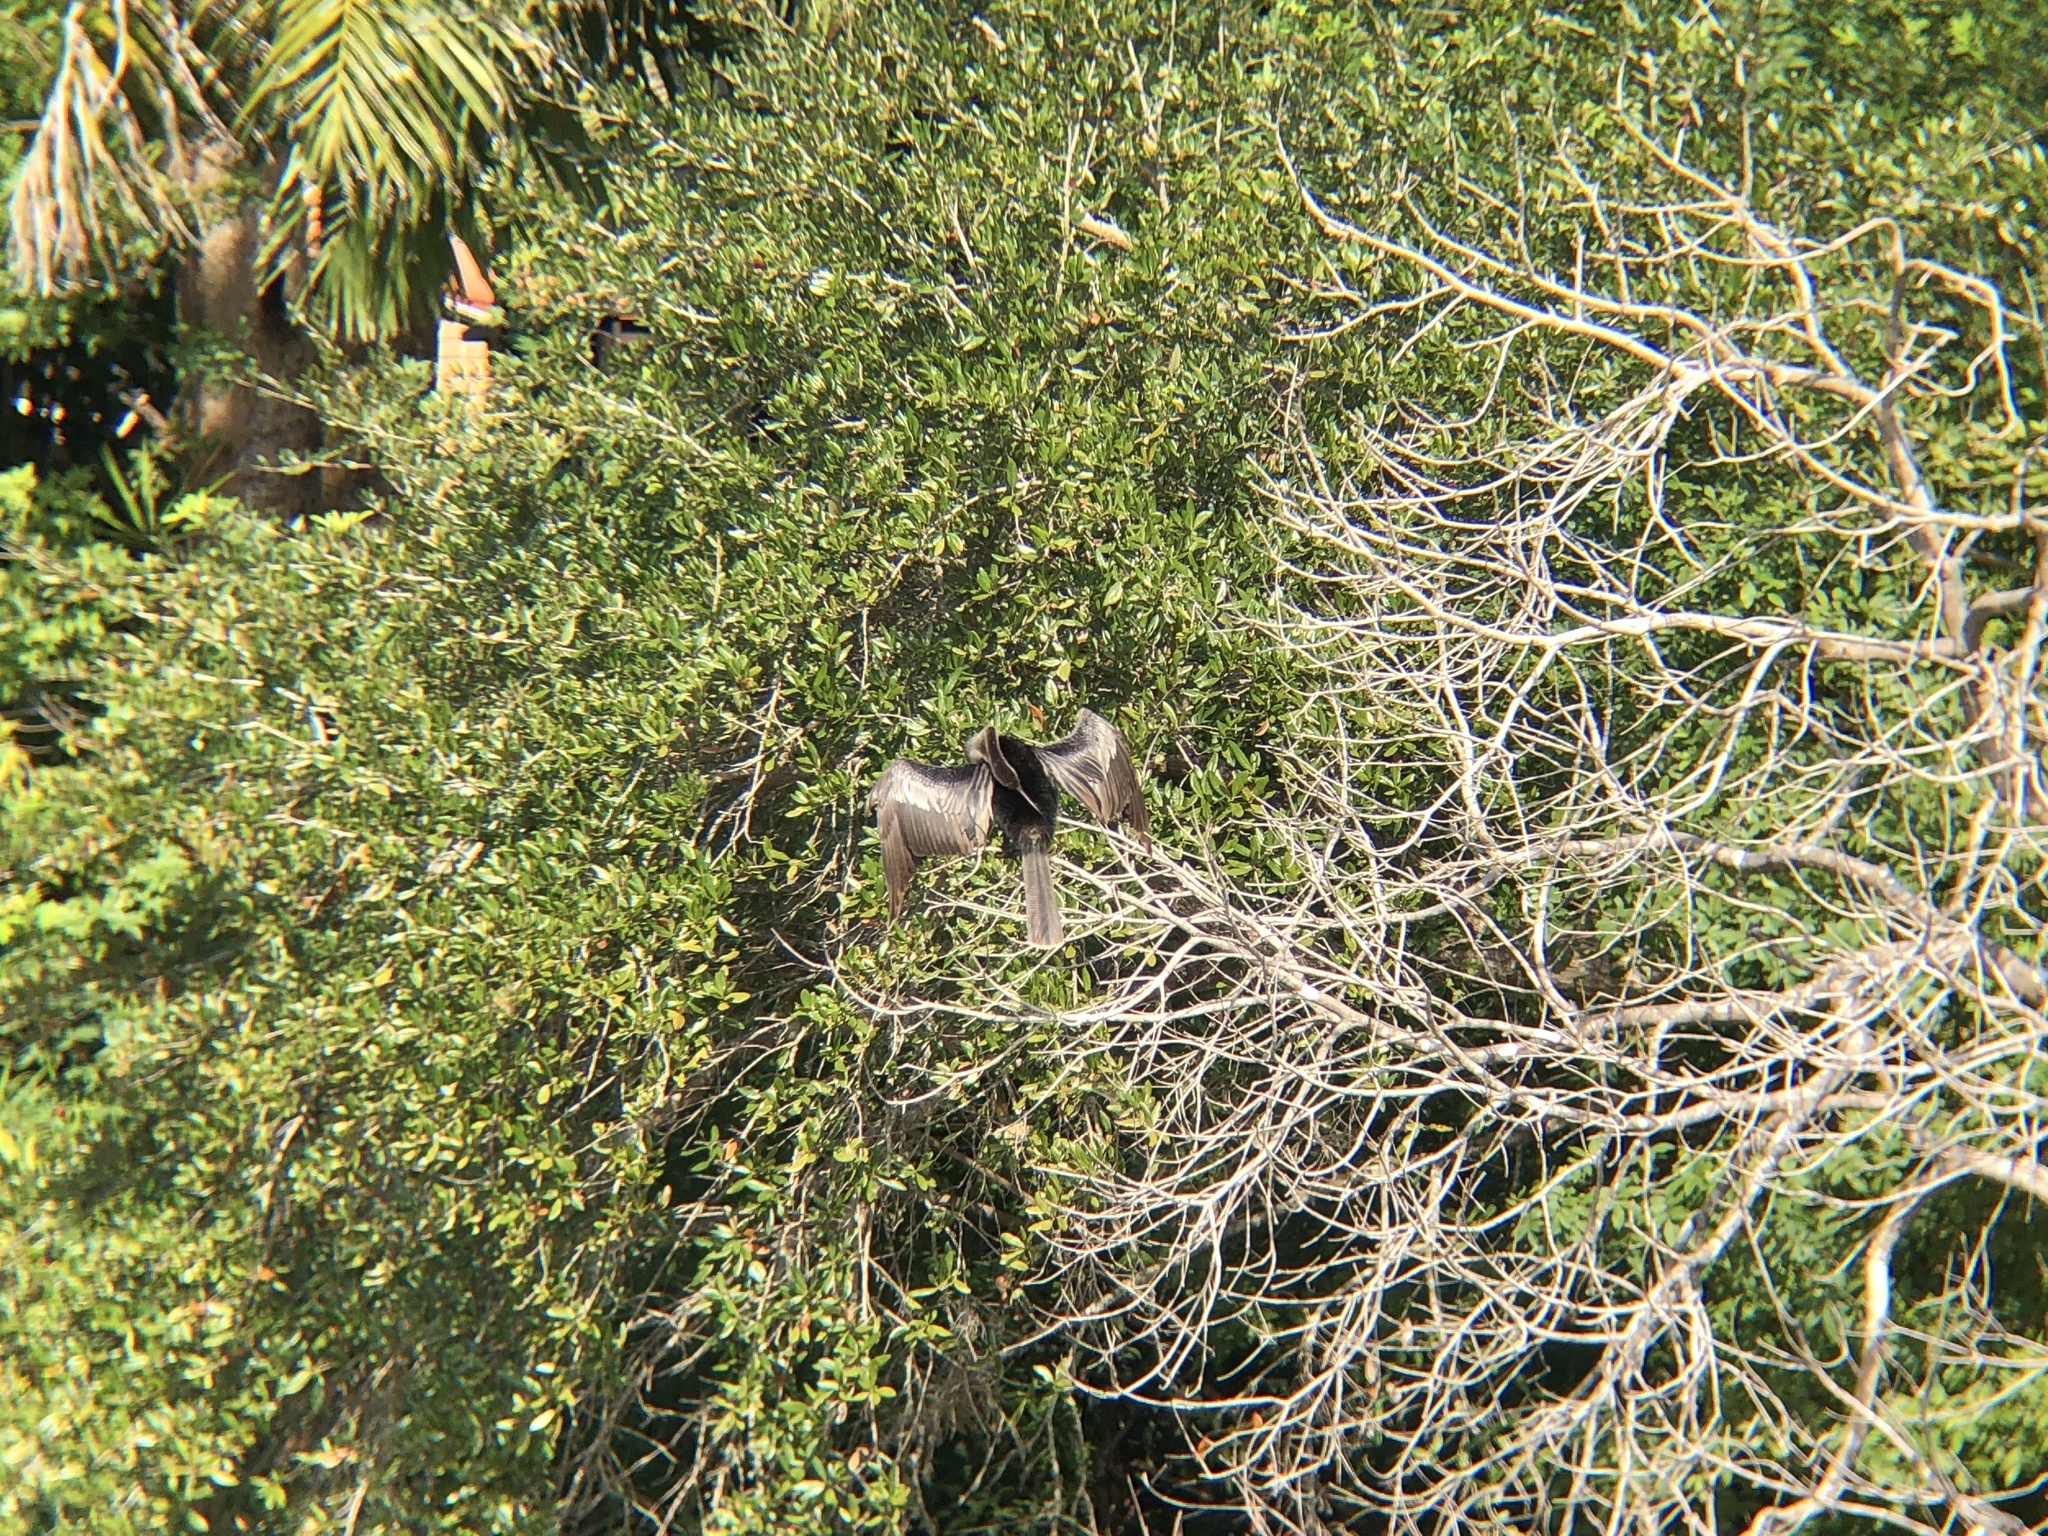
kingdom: Animalia
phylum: Chordata
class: Aves
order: Suliformes
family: Anhingidae
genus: Anhinga
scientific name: Anhinga anhinga
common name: Anhinga
